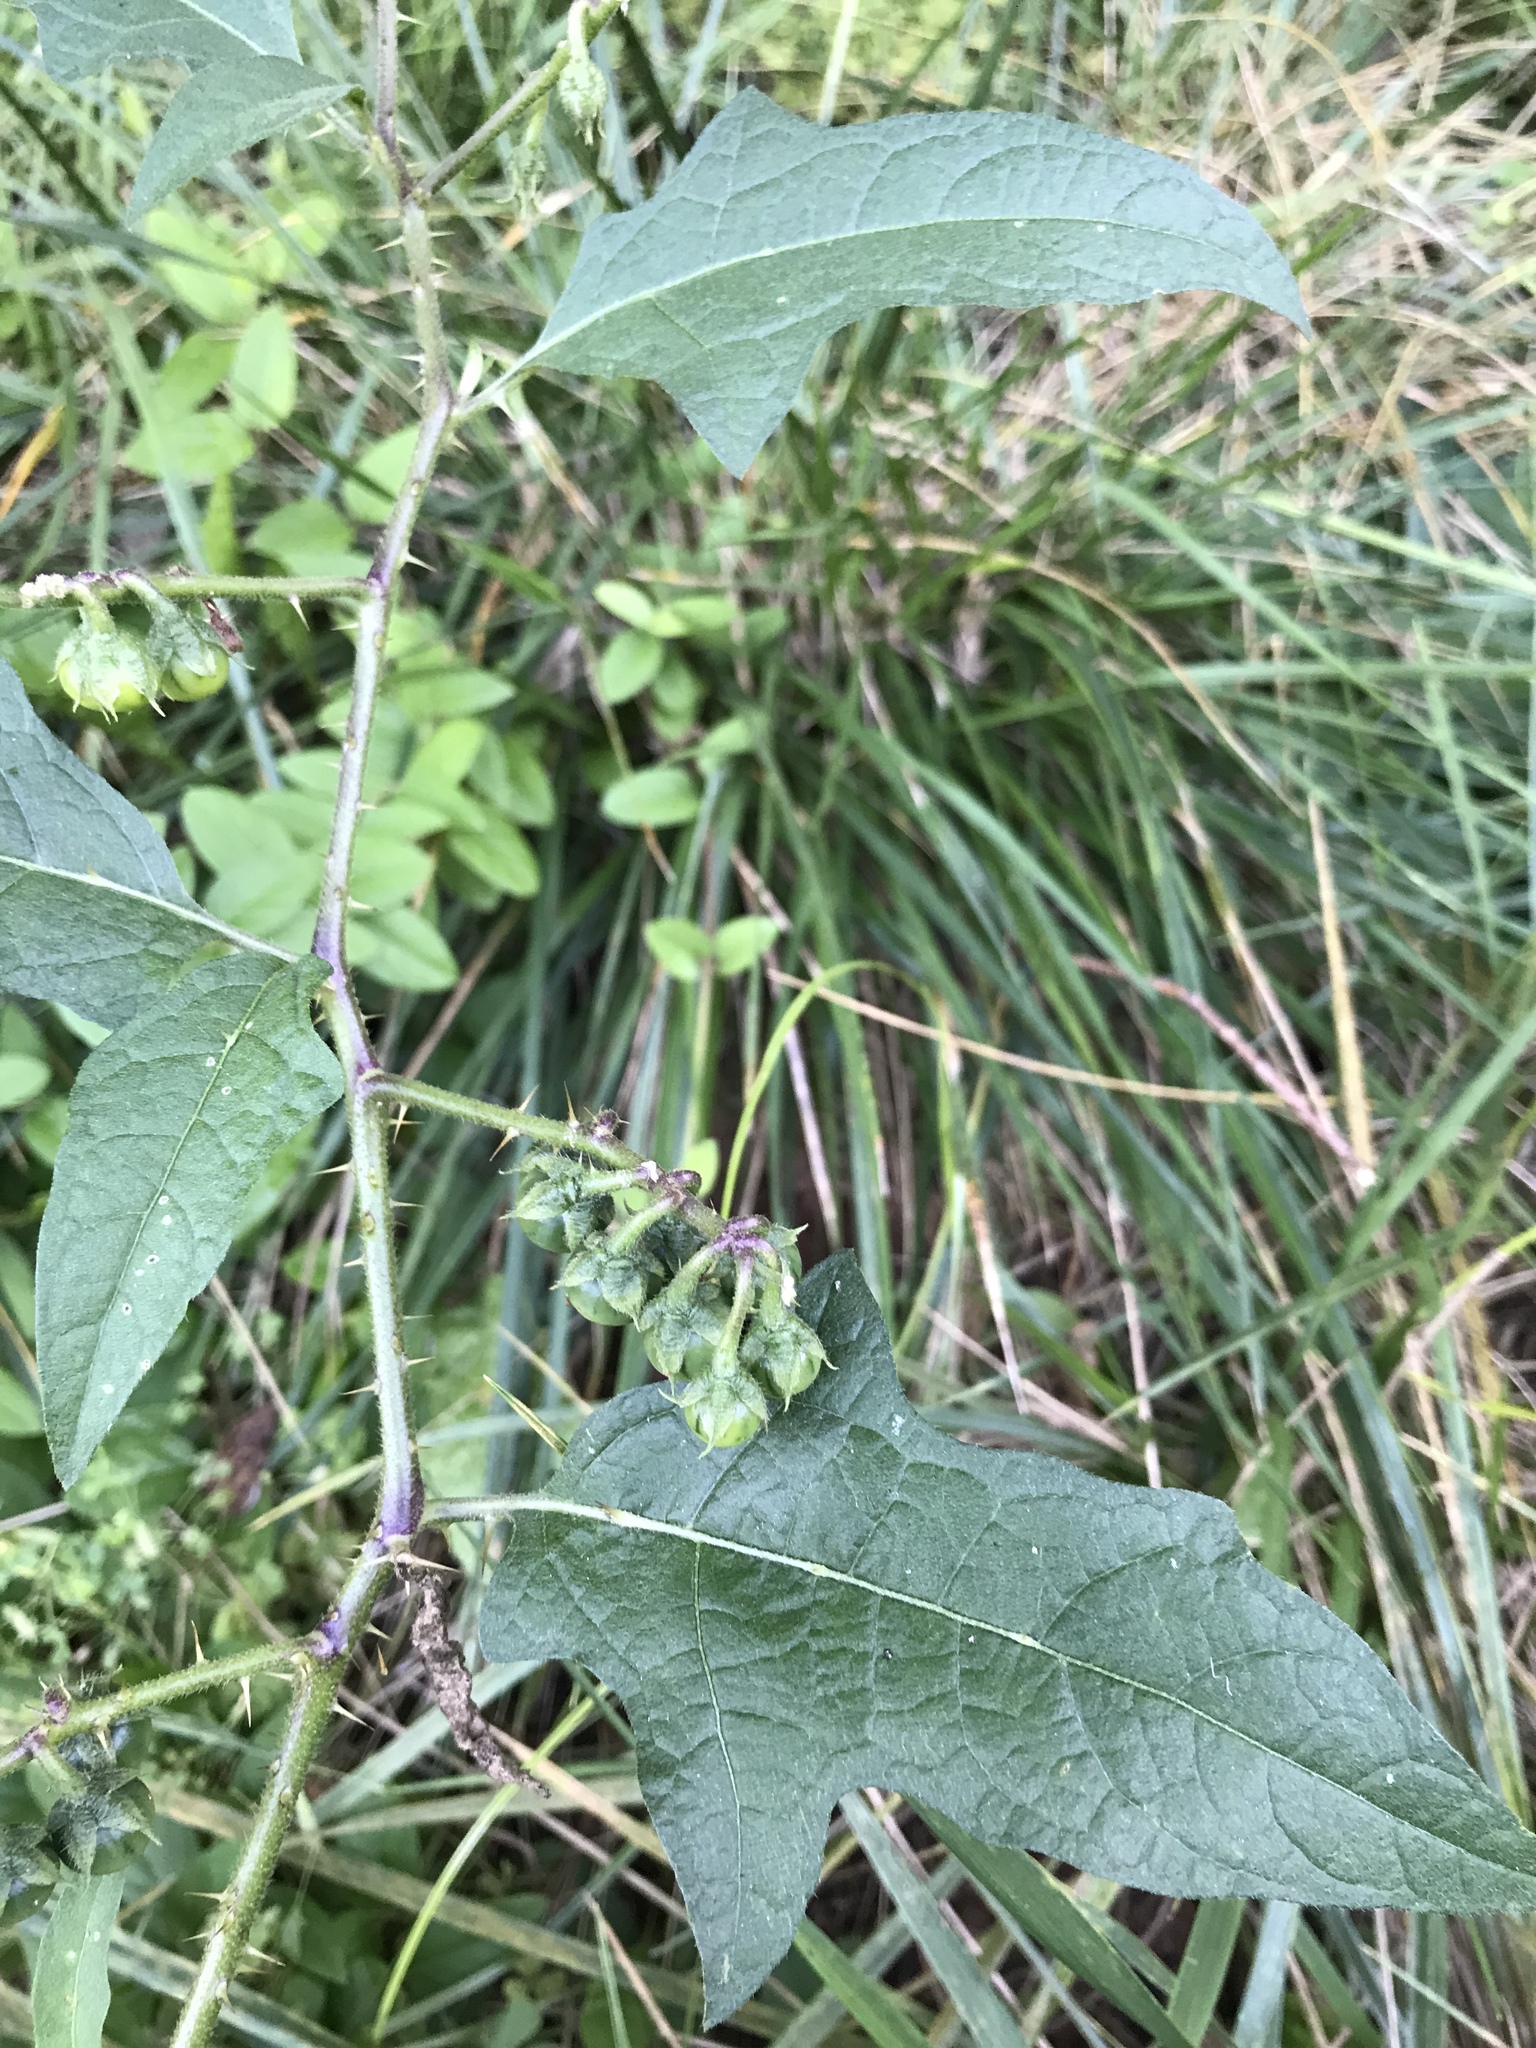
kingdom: Plantae
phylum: Tracheophyta
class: Magnoliopsida
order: Solanales
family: Solanaceae
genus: Solanum
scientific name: Solanum carolinense
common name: Horse-nettle
